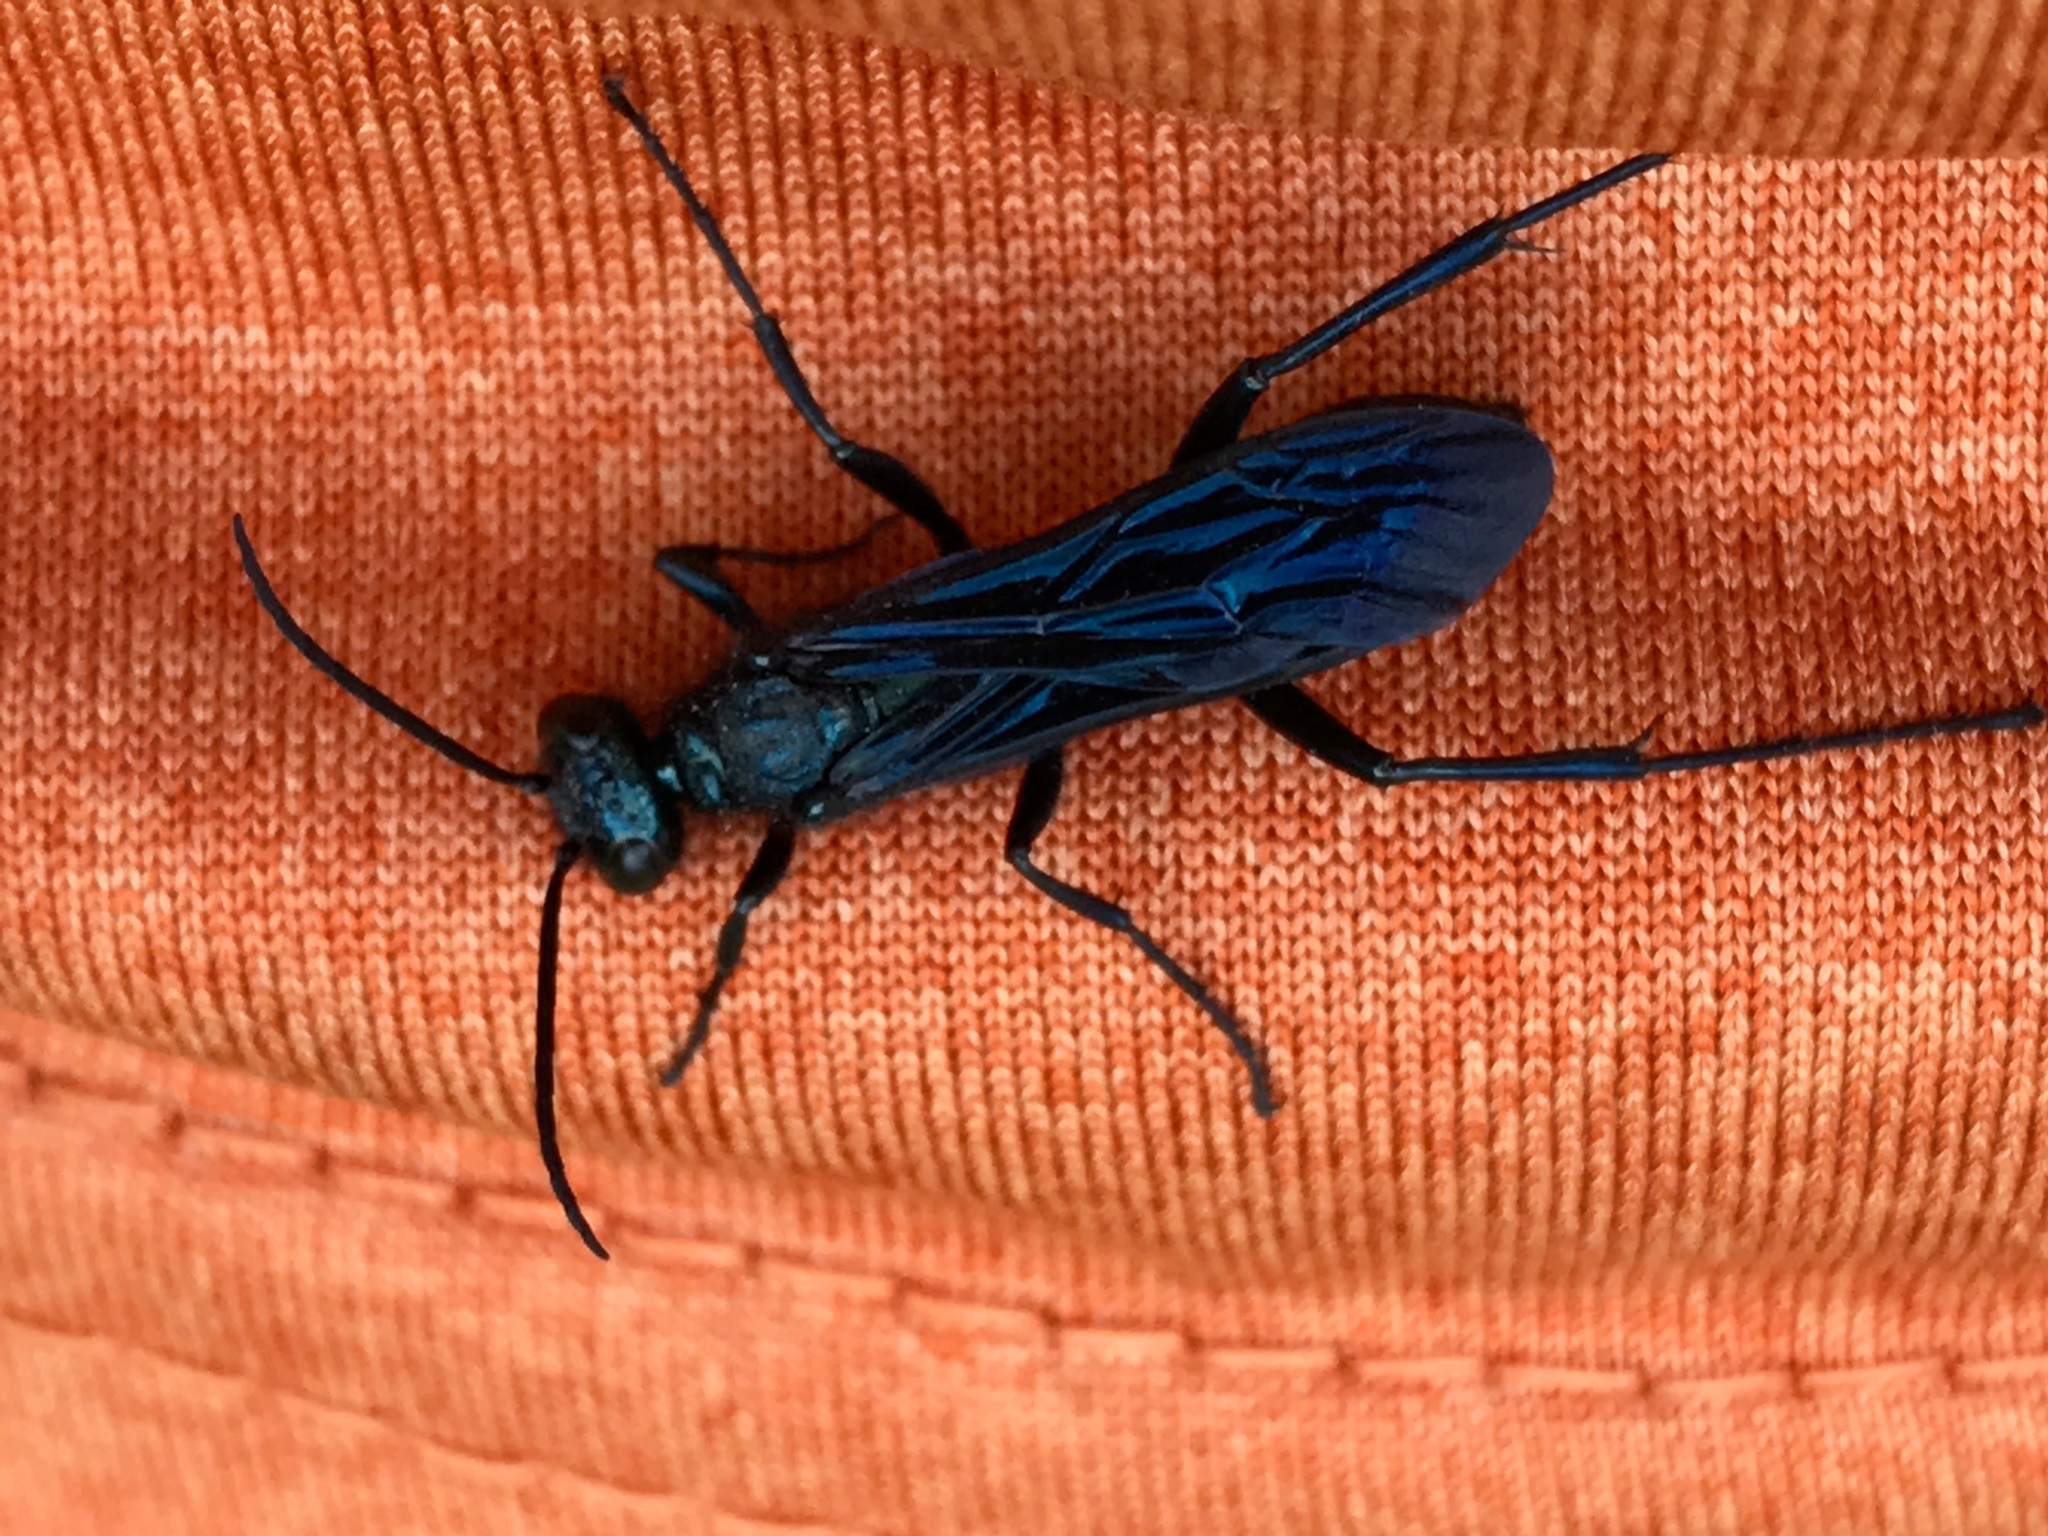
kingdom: Animalia
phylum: Arthropoda
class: Insecta
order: Hymenoptera
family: Sphecidae
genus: Chalybion
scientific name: Chalybion californicum
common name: Mud dauber
